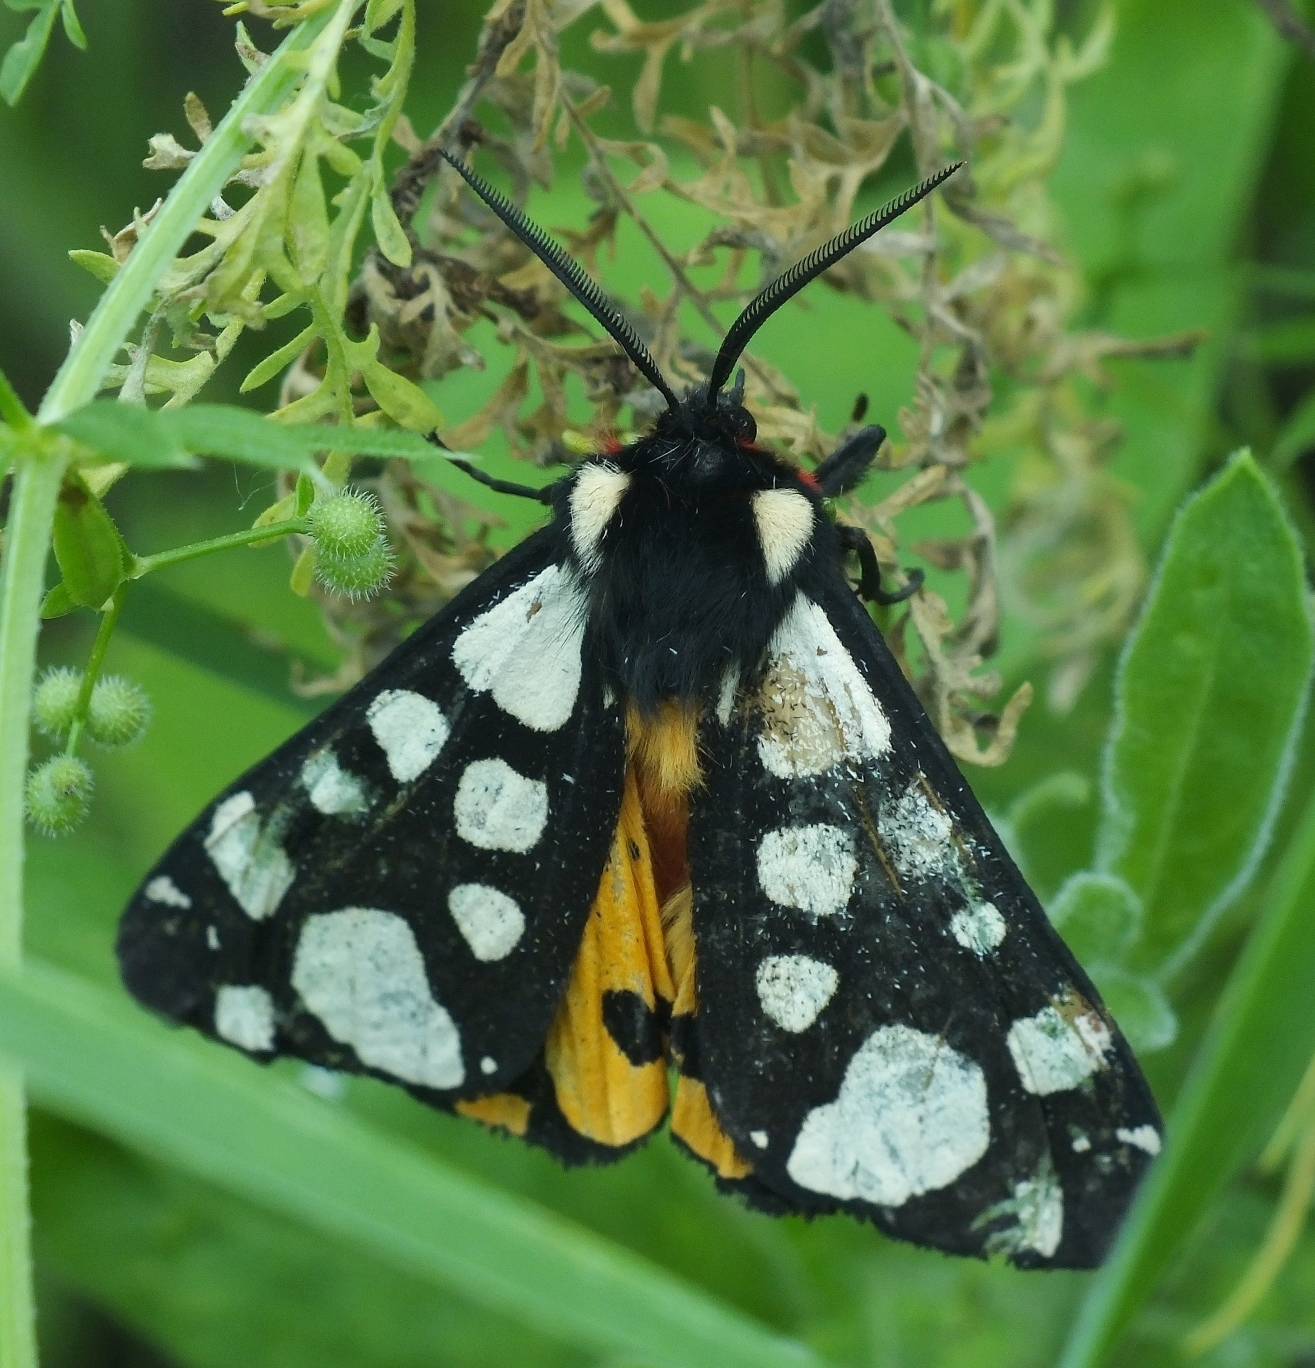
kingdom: Animalia
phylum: Arthropoda
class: Insecta
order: Lepidoptera
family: Erebidae
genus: Epicallia
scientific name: Epicallia villica
